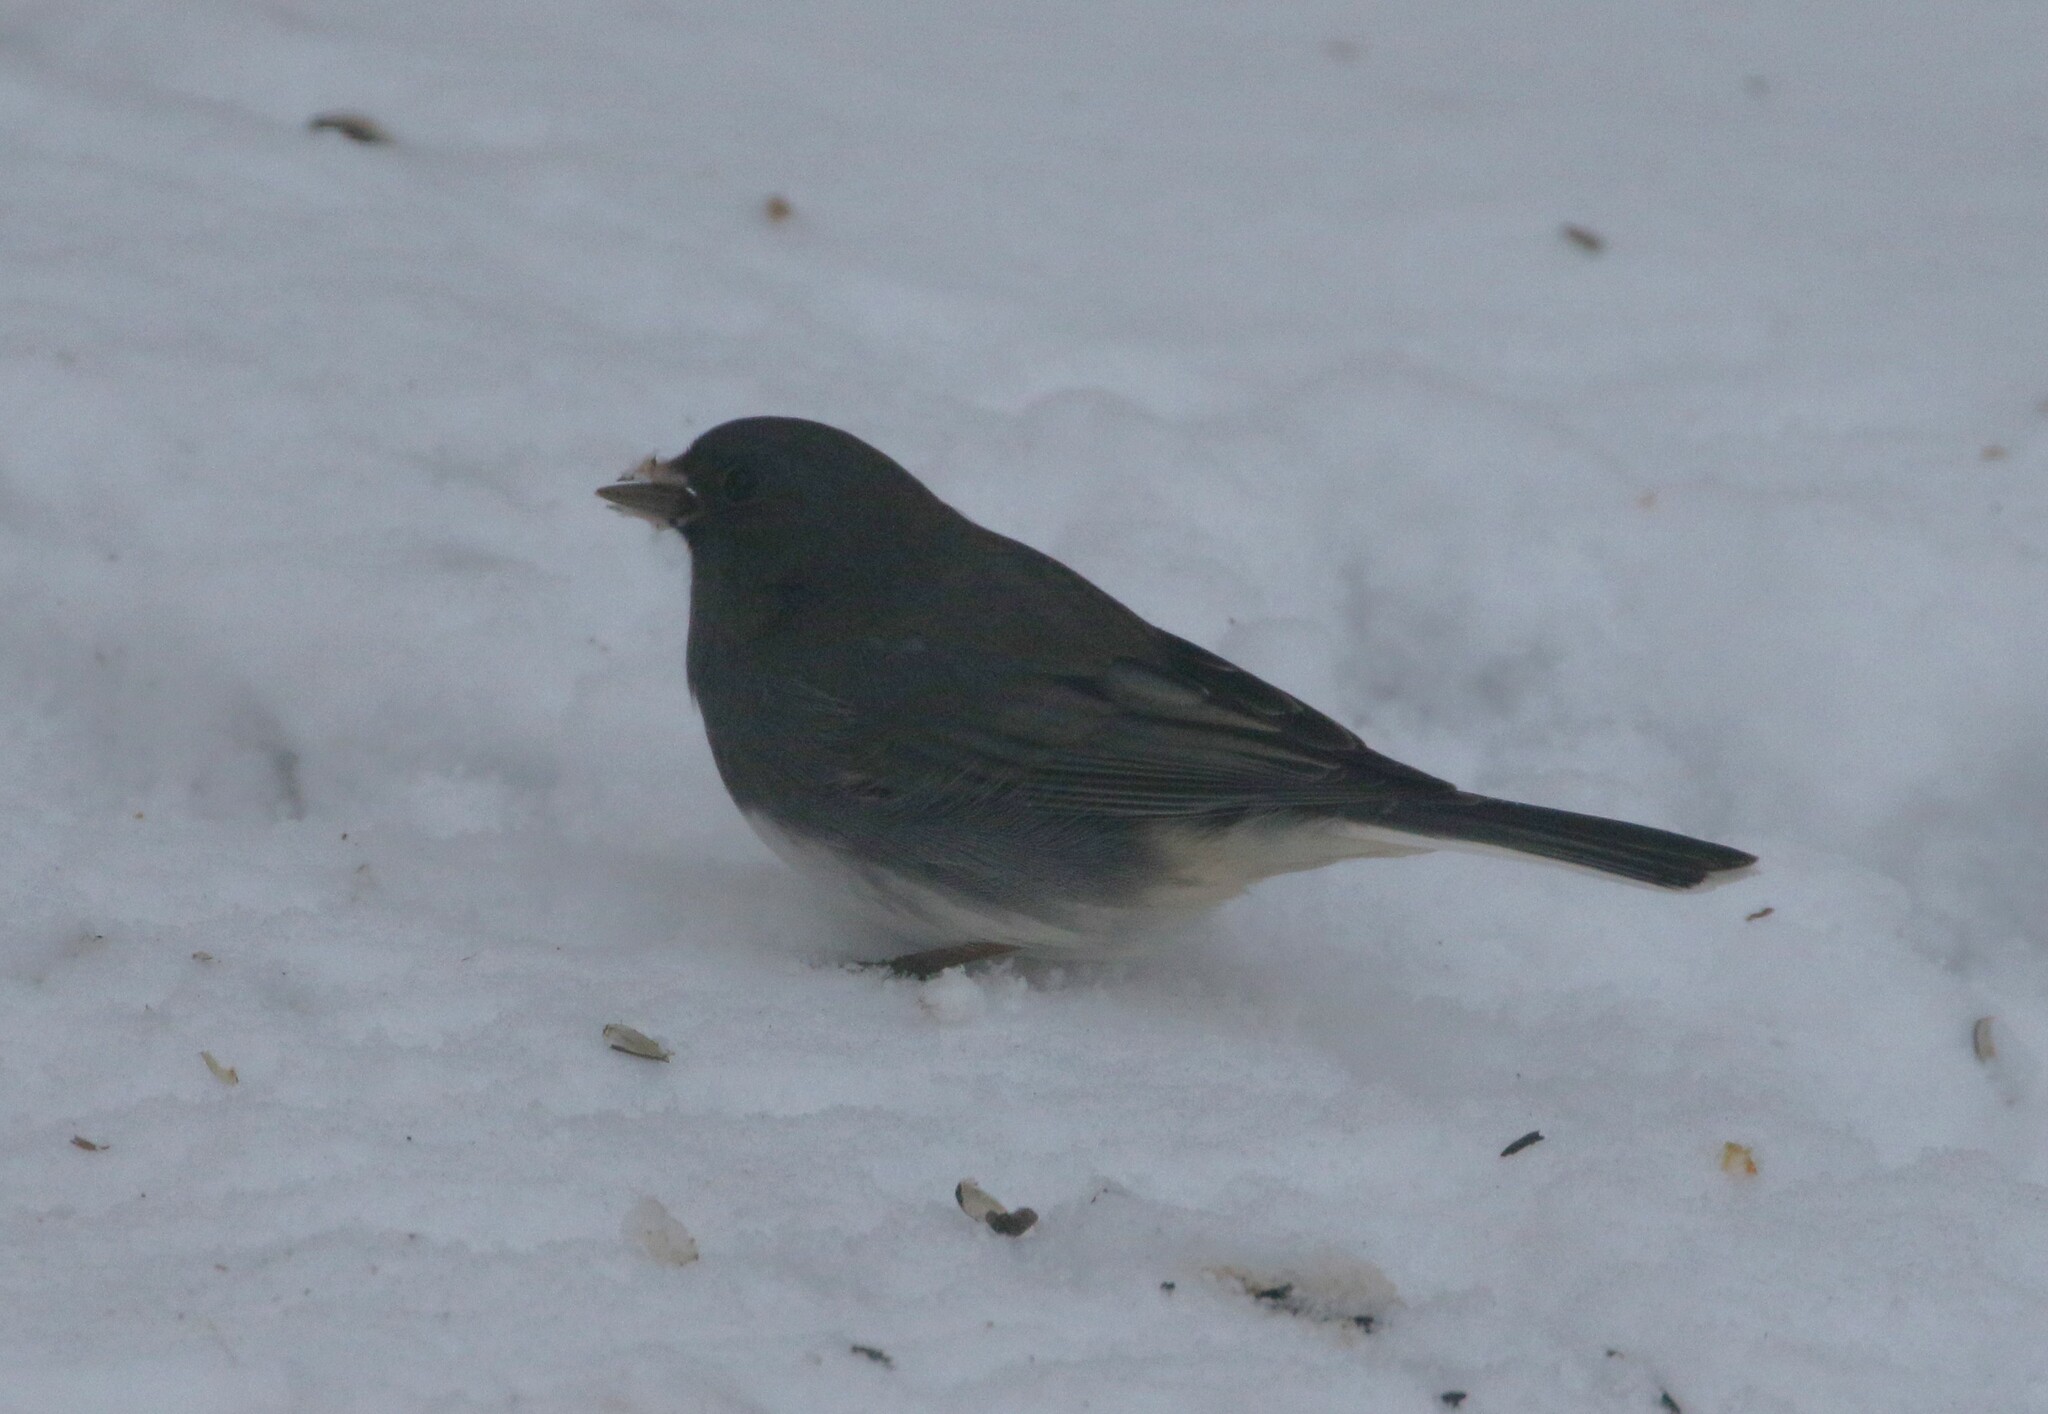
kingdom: Animalia
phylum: Chordata
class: Aves
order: Passeriformes
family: Passerellidae
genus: Junco
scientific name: Junco hyemalis
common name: Dark-eyed junco
